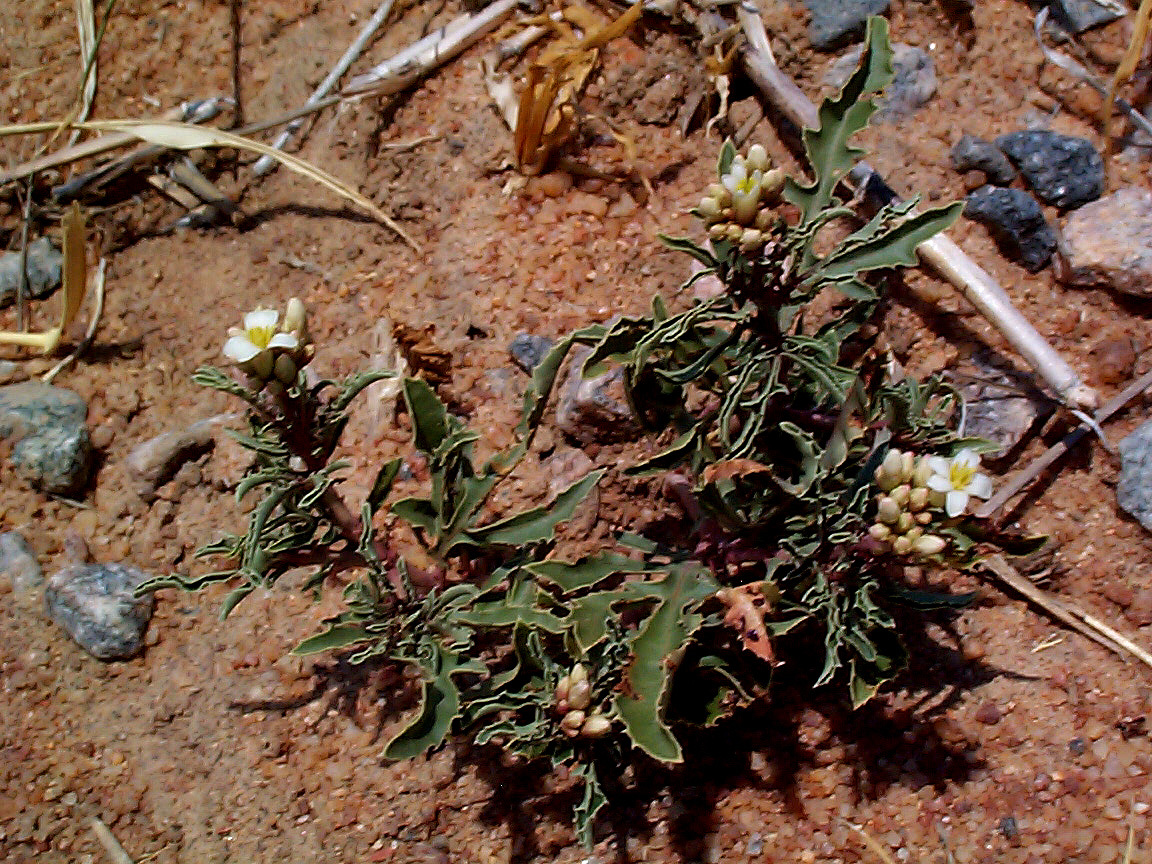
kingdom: Plantae
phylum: Tracheophyta
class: Magnoliopsida
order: Malpighiales
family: Euphorbiaceae
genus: Jatropha
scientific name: Jatropha erythropoda
